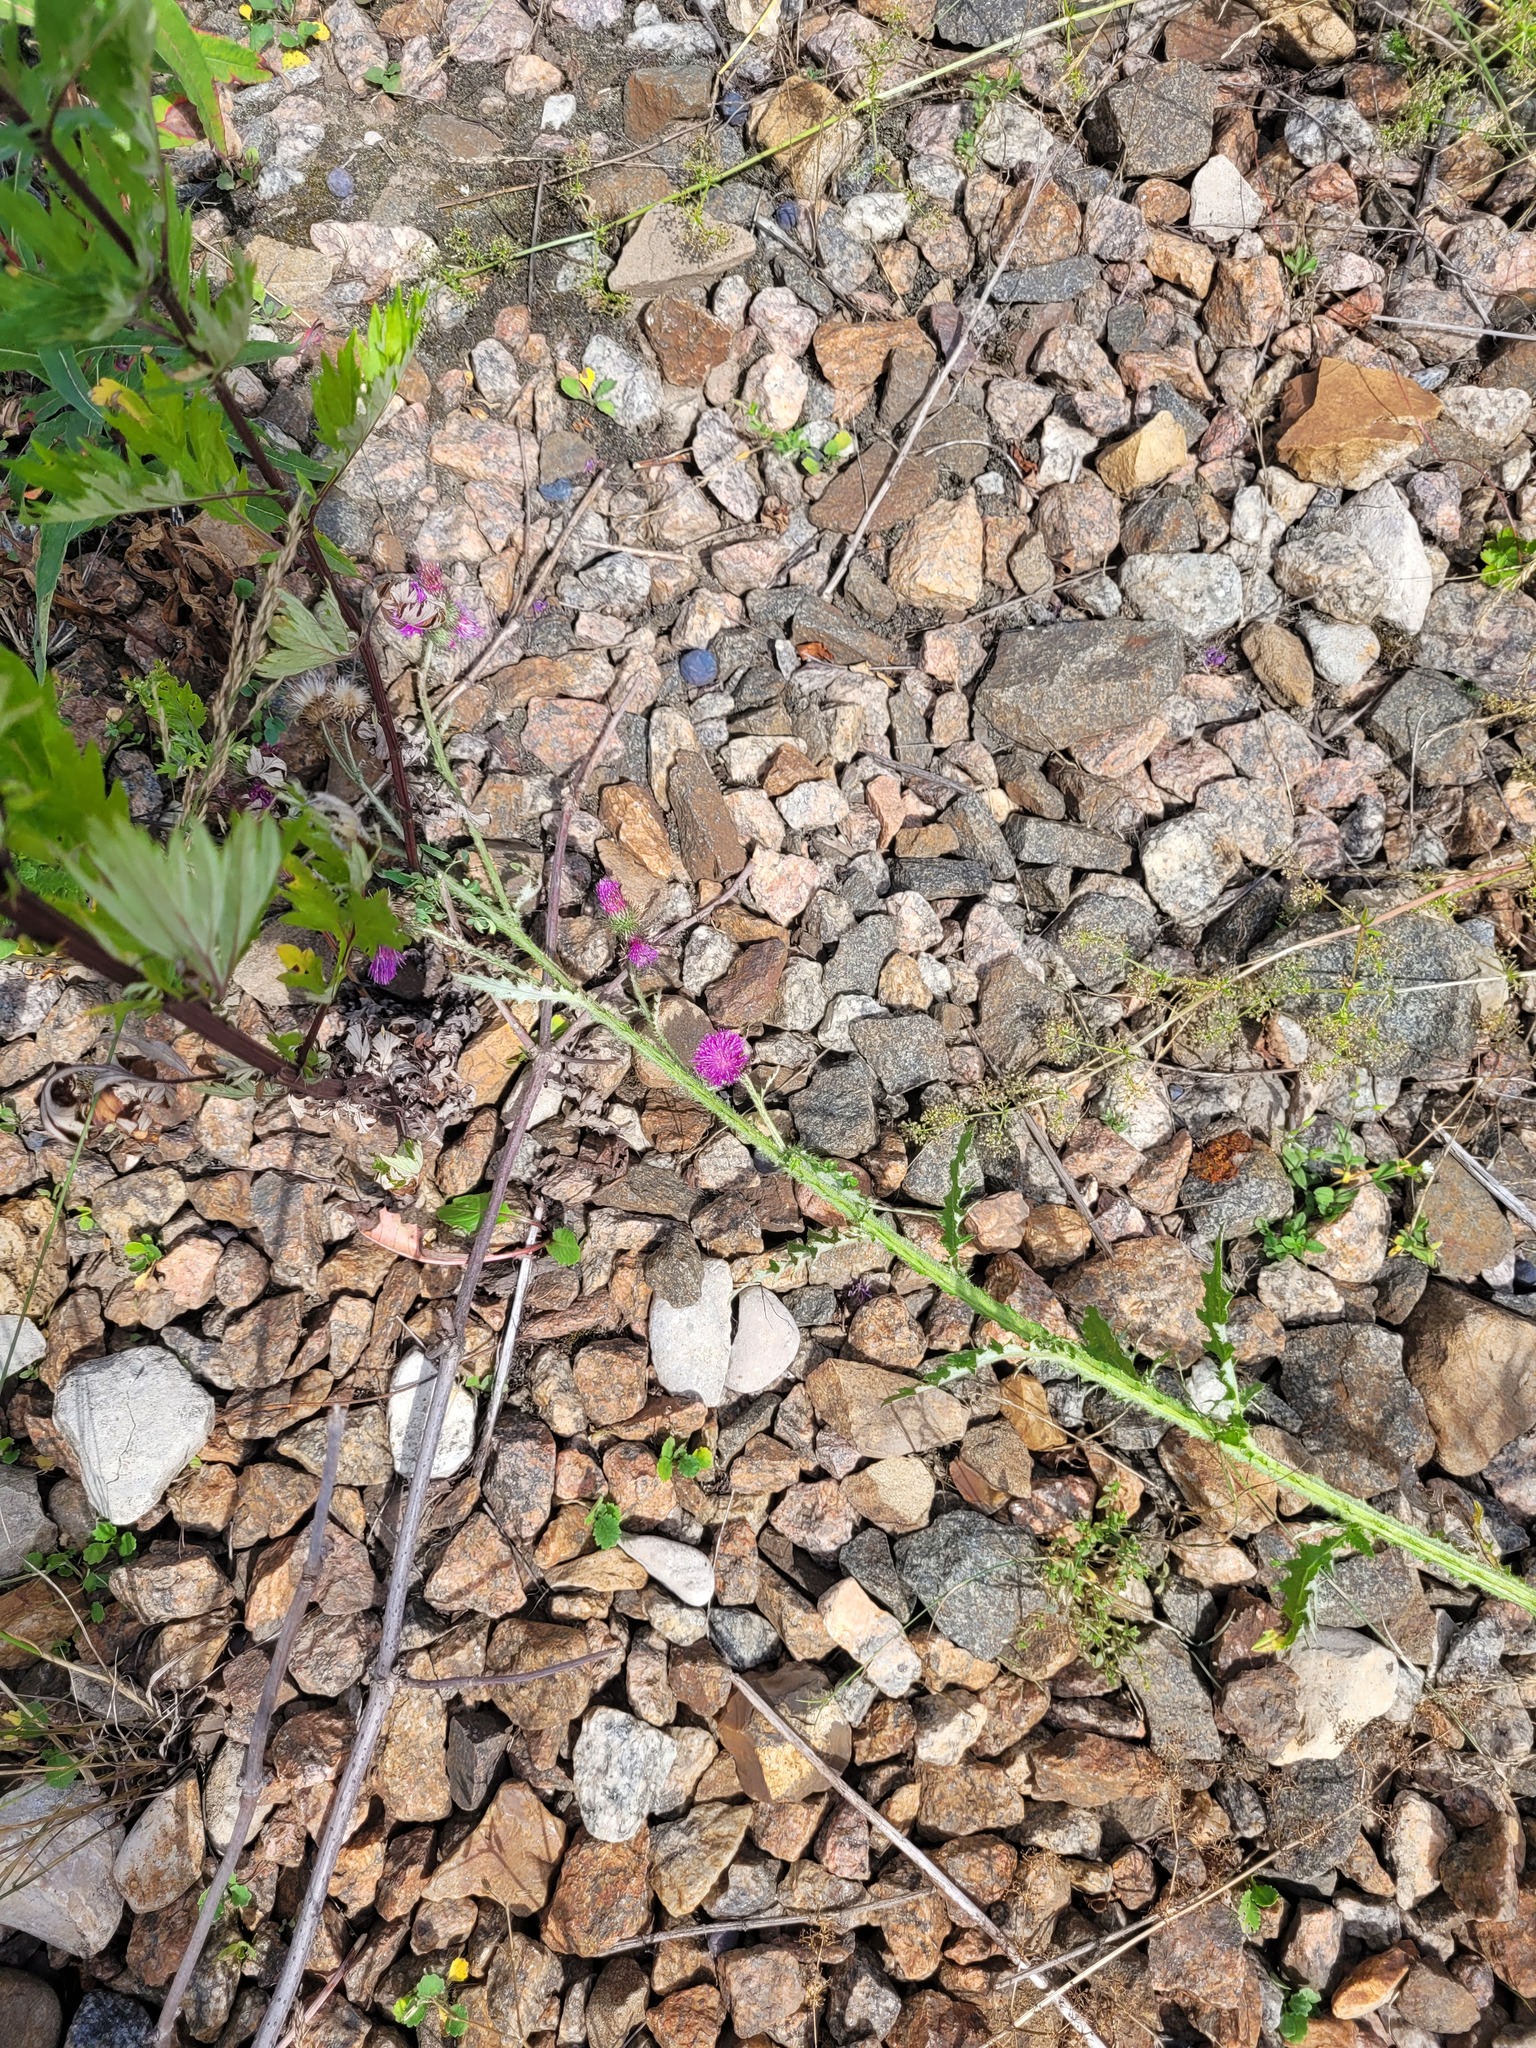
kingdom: Plantae
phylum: Tracheophyta
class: Magnoliopsida
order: Asterales
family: Asteraceae
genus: Carduus
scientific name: Carduus crispus
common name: Welted thistle
